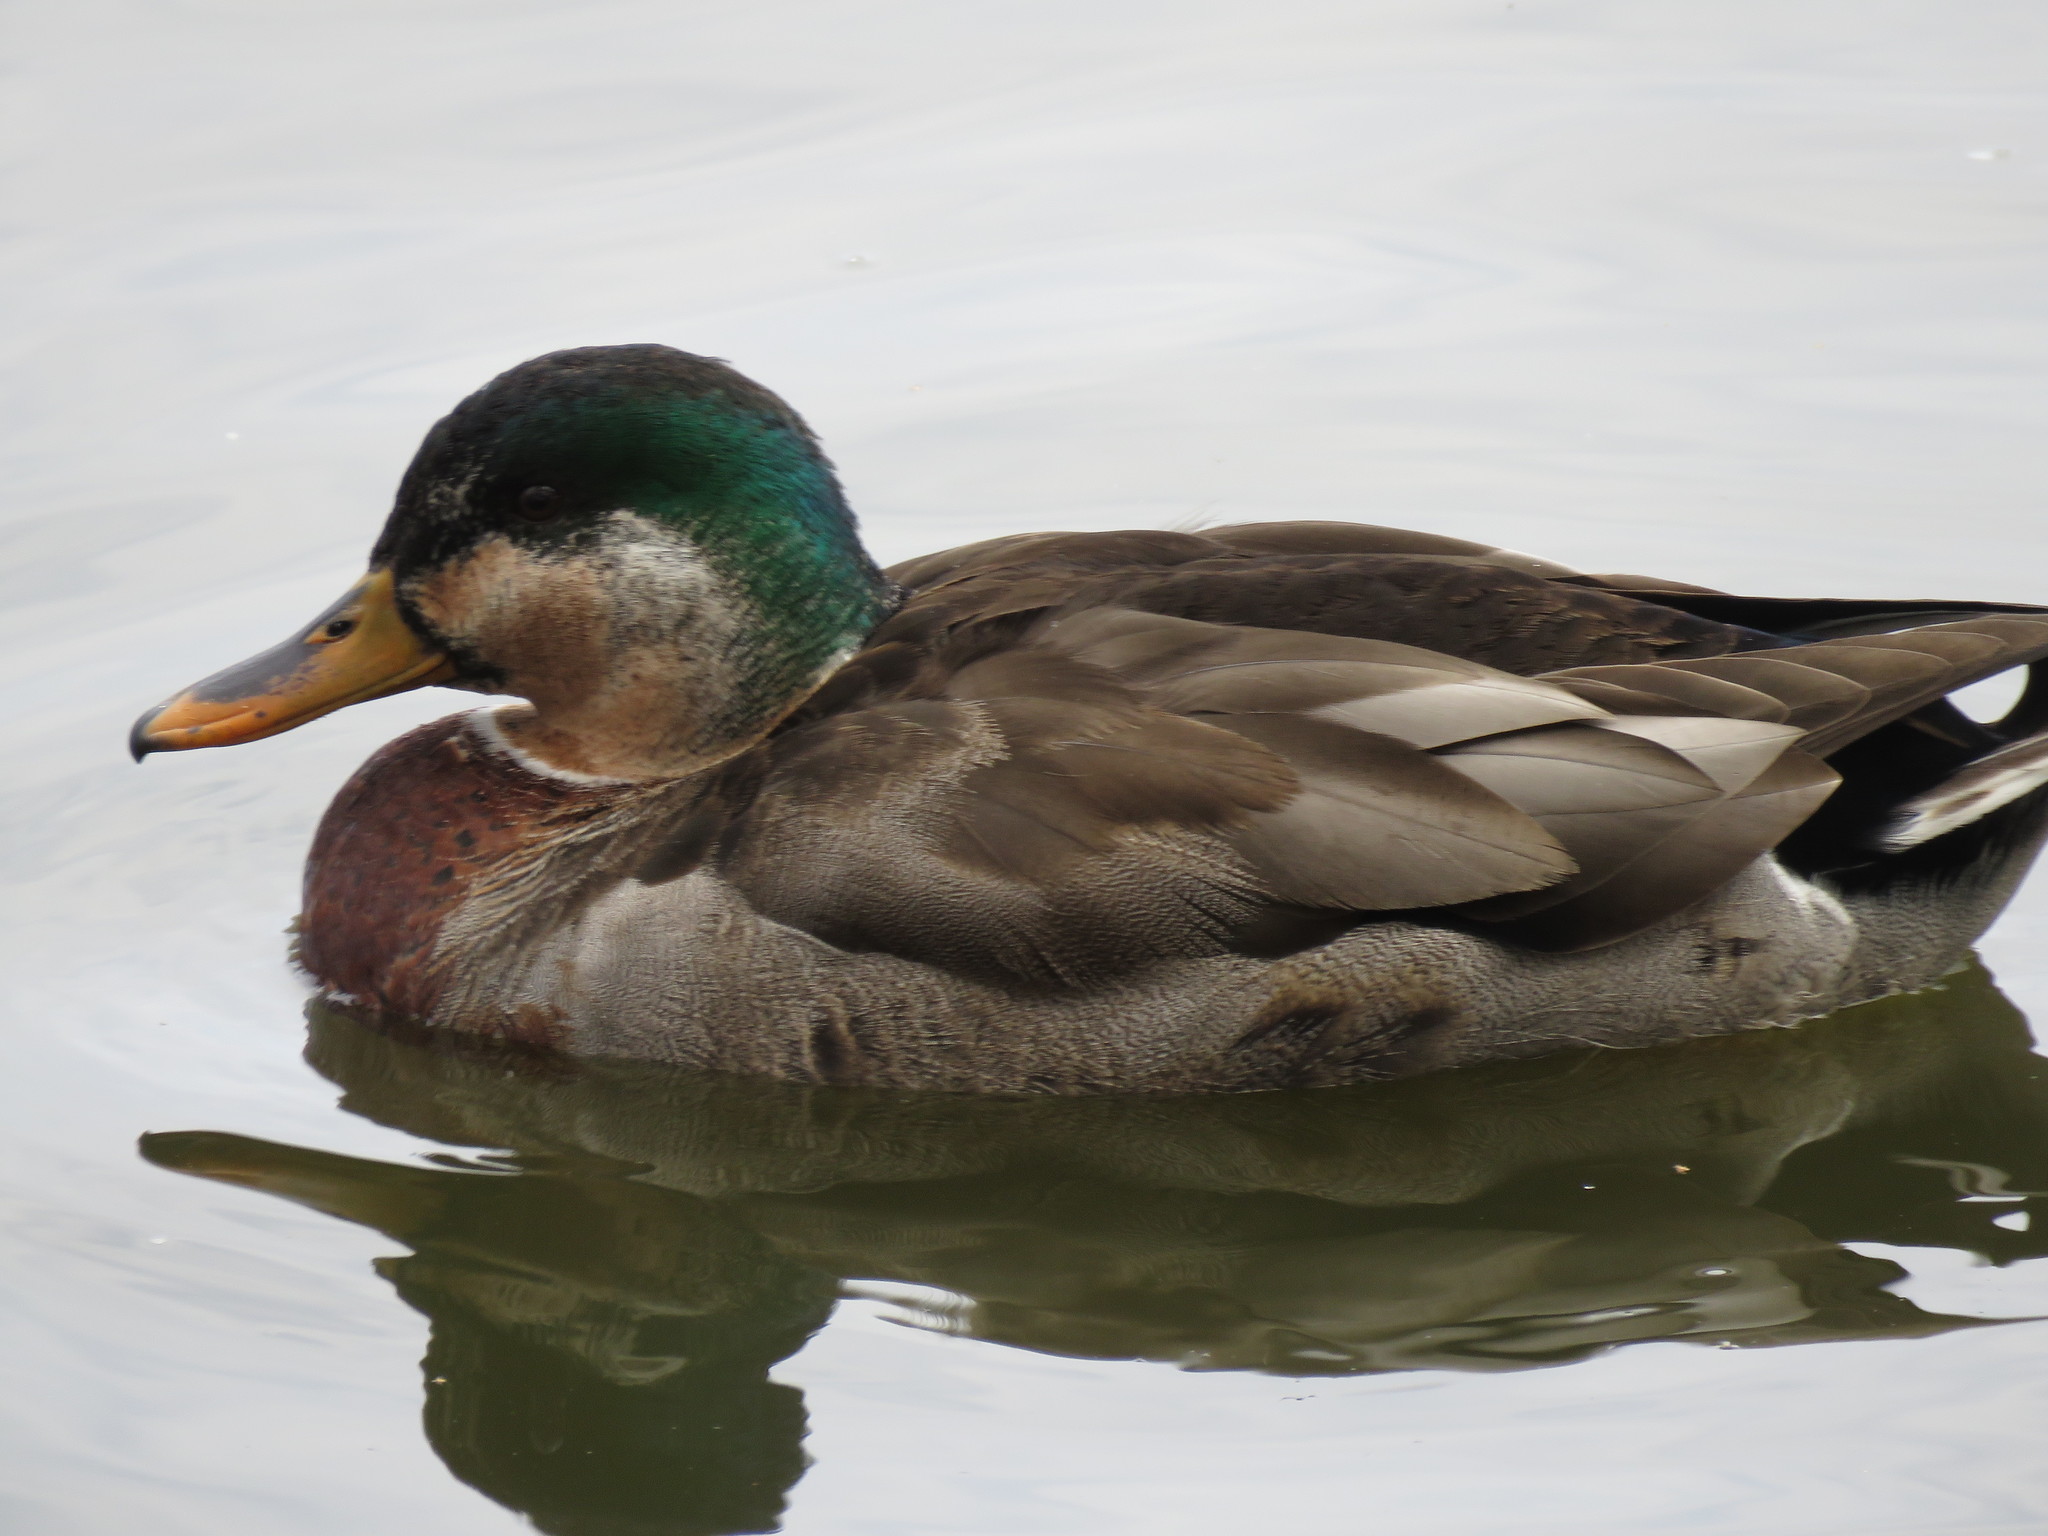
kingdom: Animalia
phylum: Chordata
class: Aves
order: Anseriformes
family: Anatidae
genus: Anas
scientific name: Anas platyrhynchos
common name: Mallard
